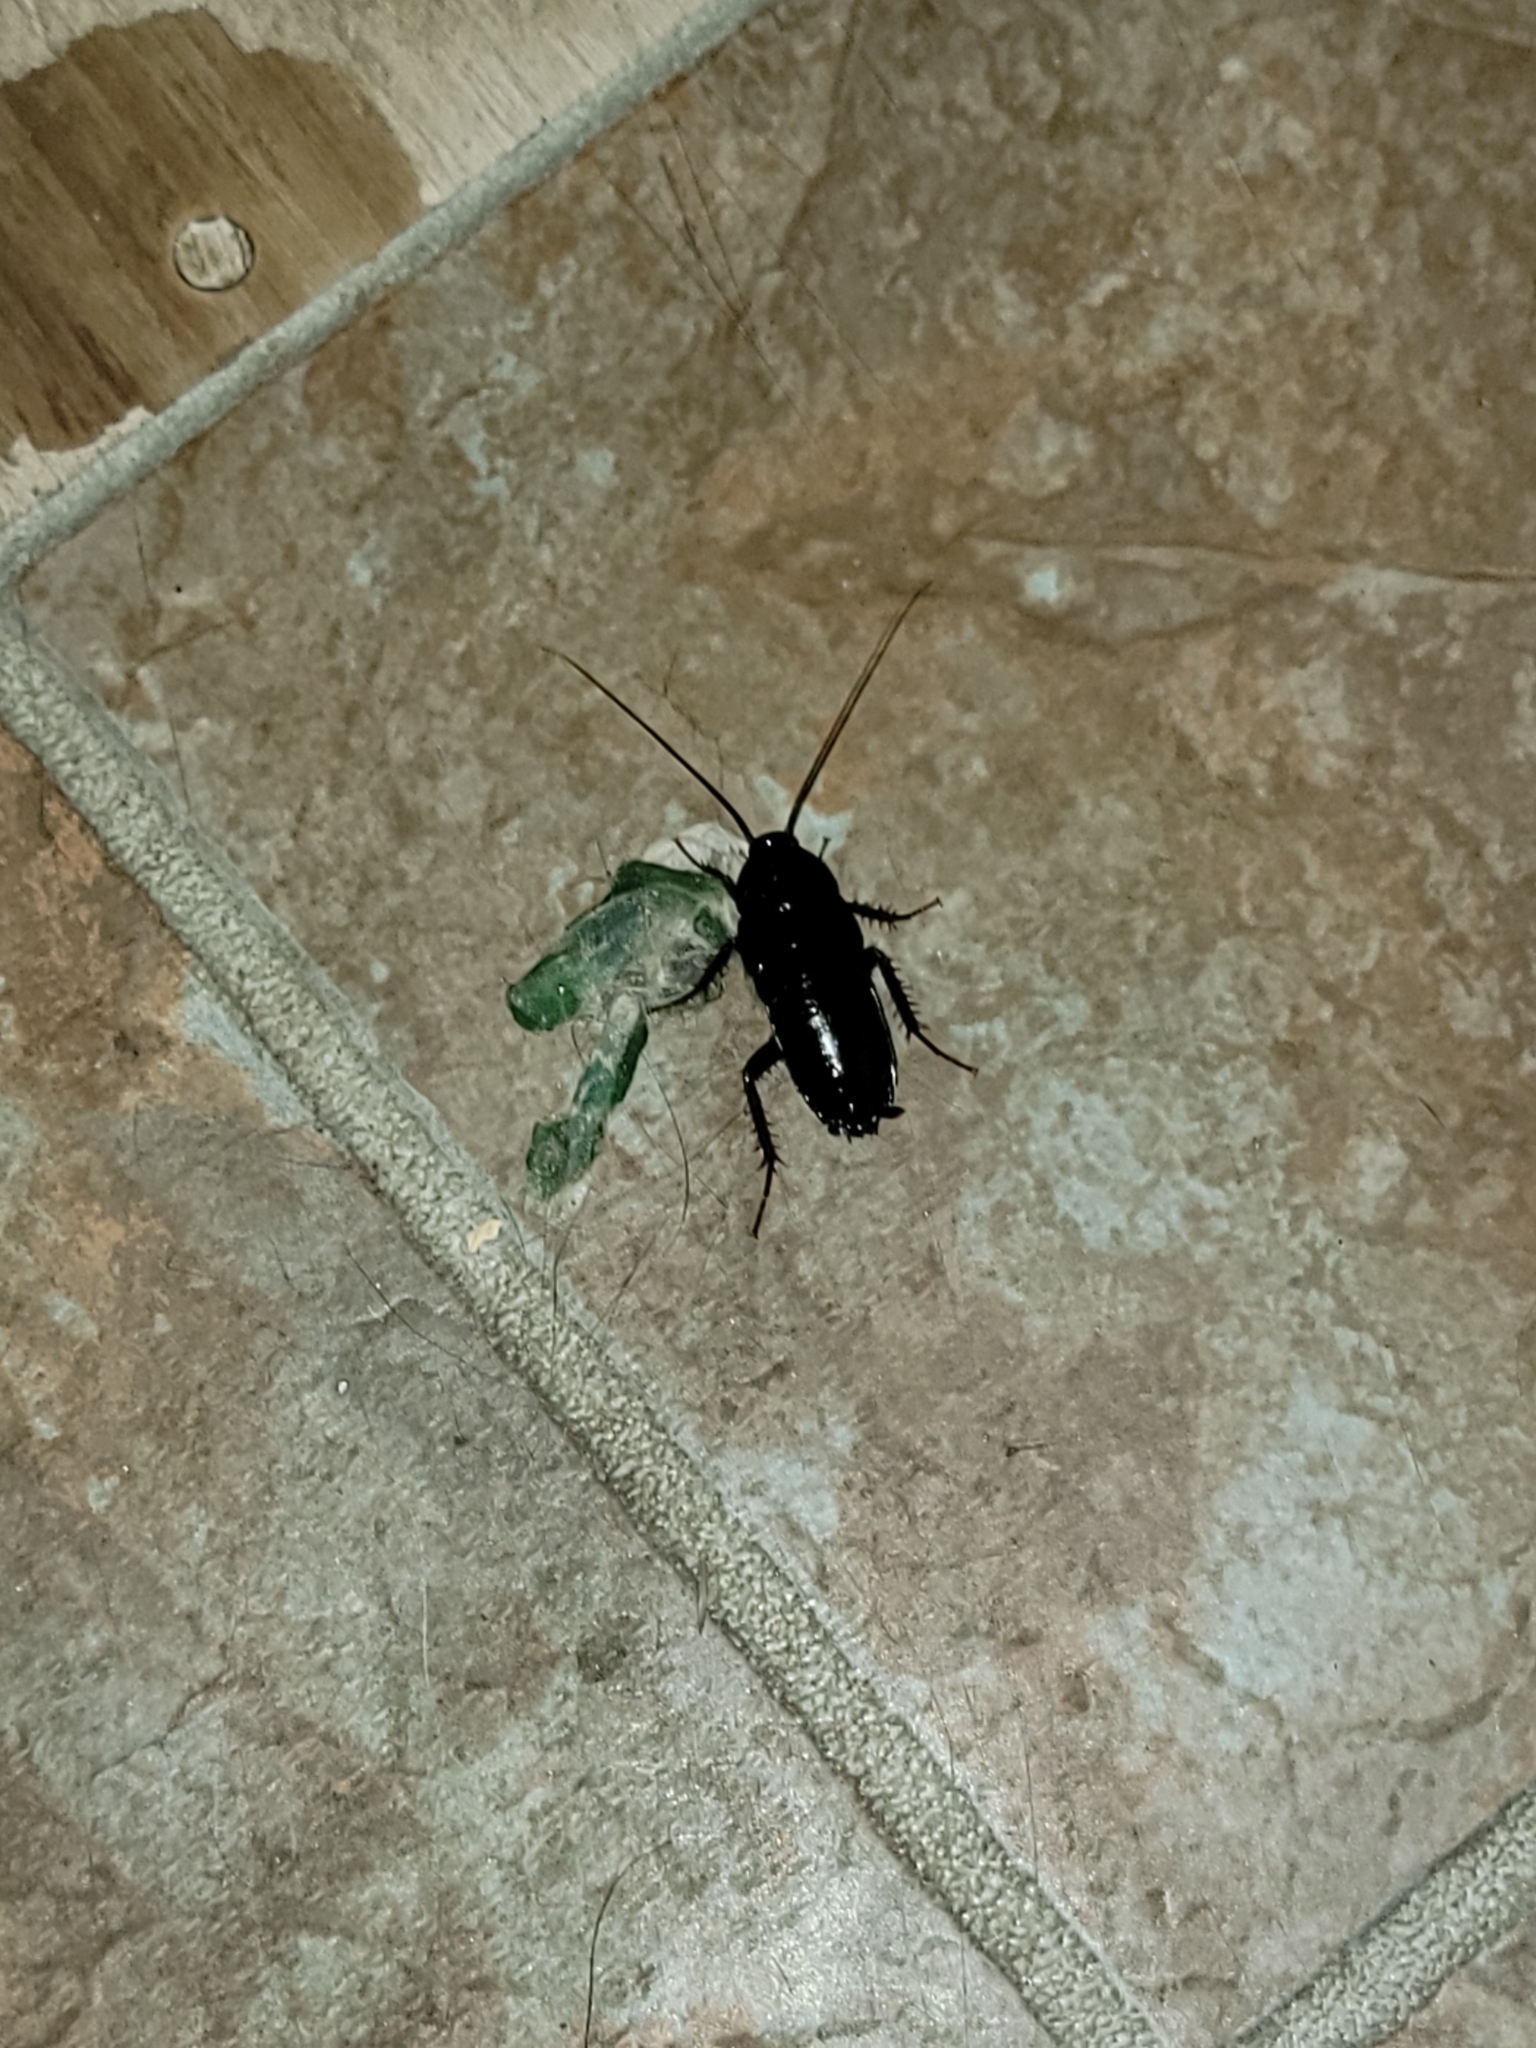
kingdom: Animalia
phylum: Arthropoda
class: Insecta
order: Blattodea
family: Blattidae
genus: Blatta
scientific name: Blatta orientalis
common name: Oriental cockroach
